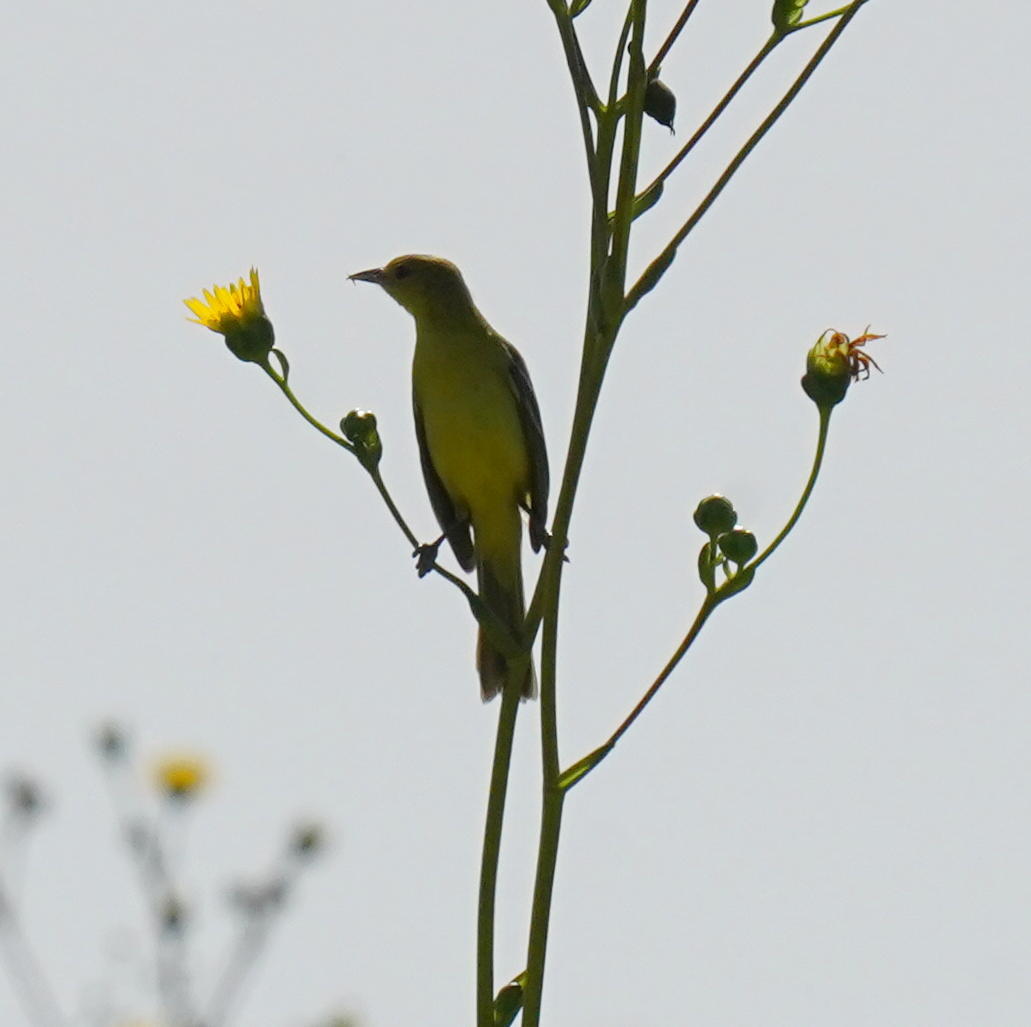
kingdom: Animalia
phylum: Chordata
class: Aves
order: Passeriformes
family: Icteridae
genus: Icterus
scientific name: Icterus spurius
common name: Orchard oriole
